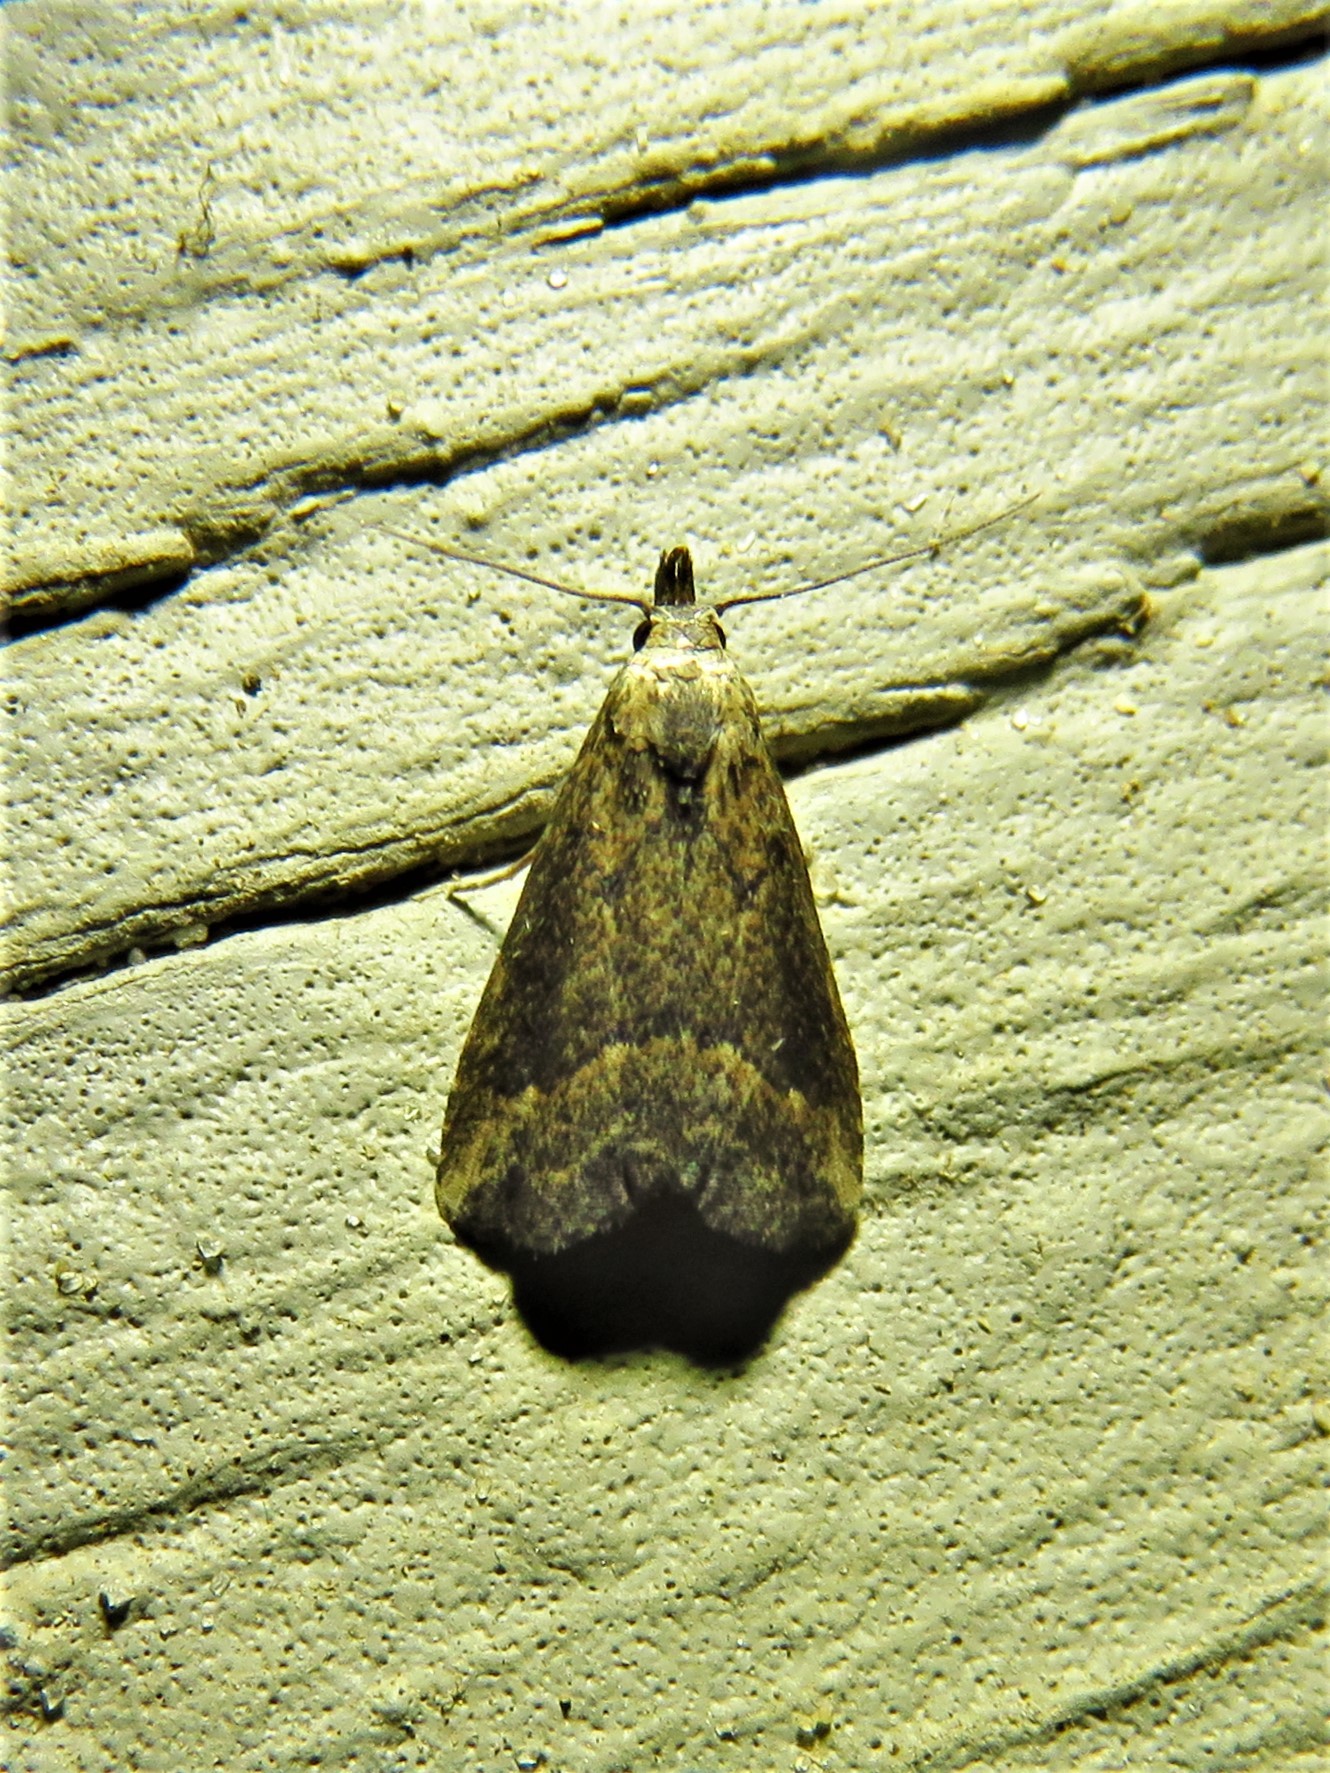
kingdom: Animalia
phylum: Arthropoda
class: Insecta
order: Lepidoptera
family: Erebidae
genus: Schrankia
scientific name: Schrankia
